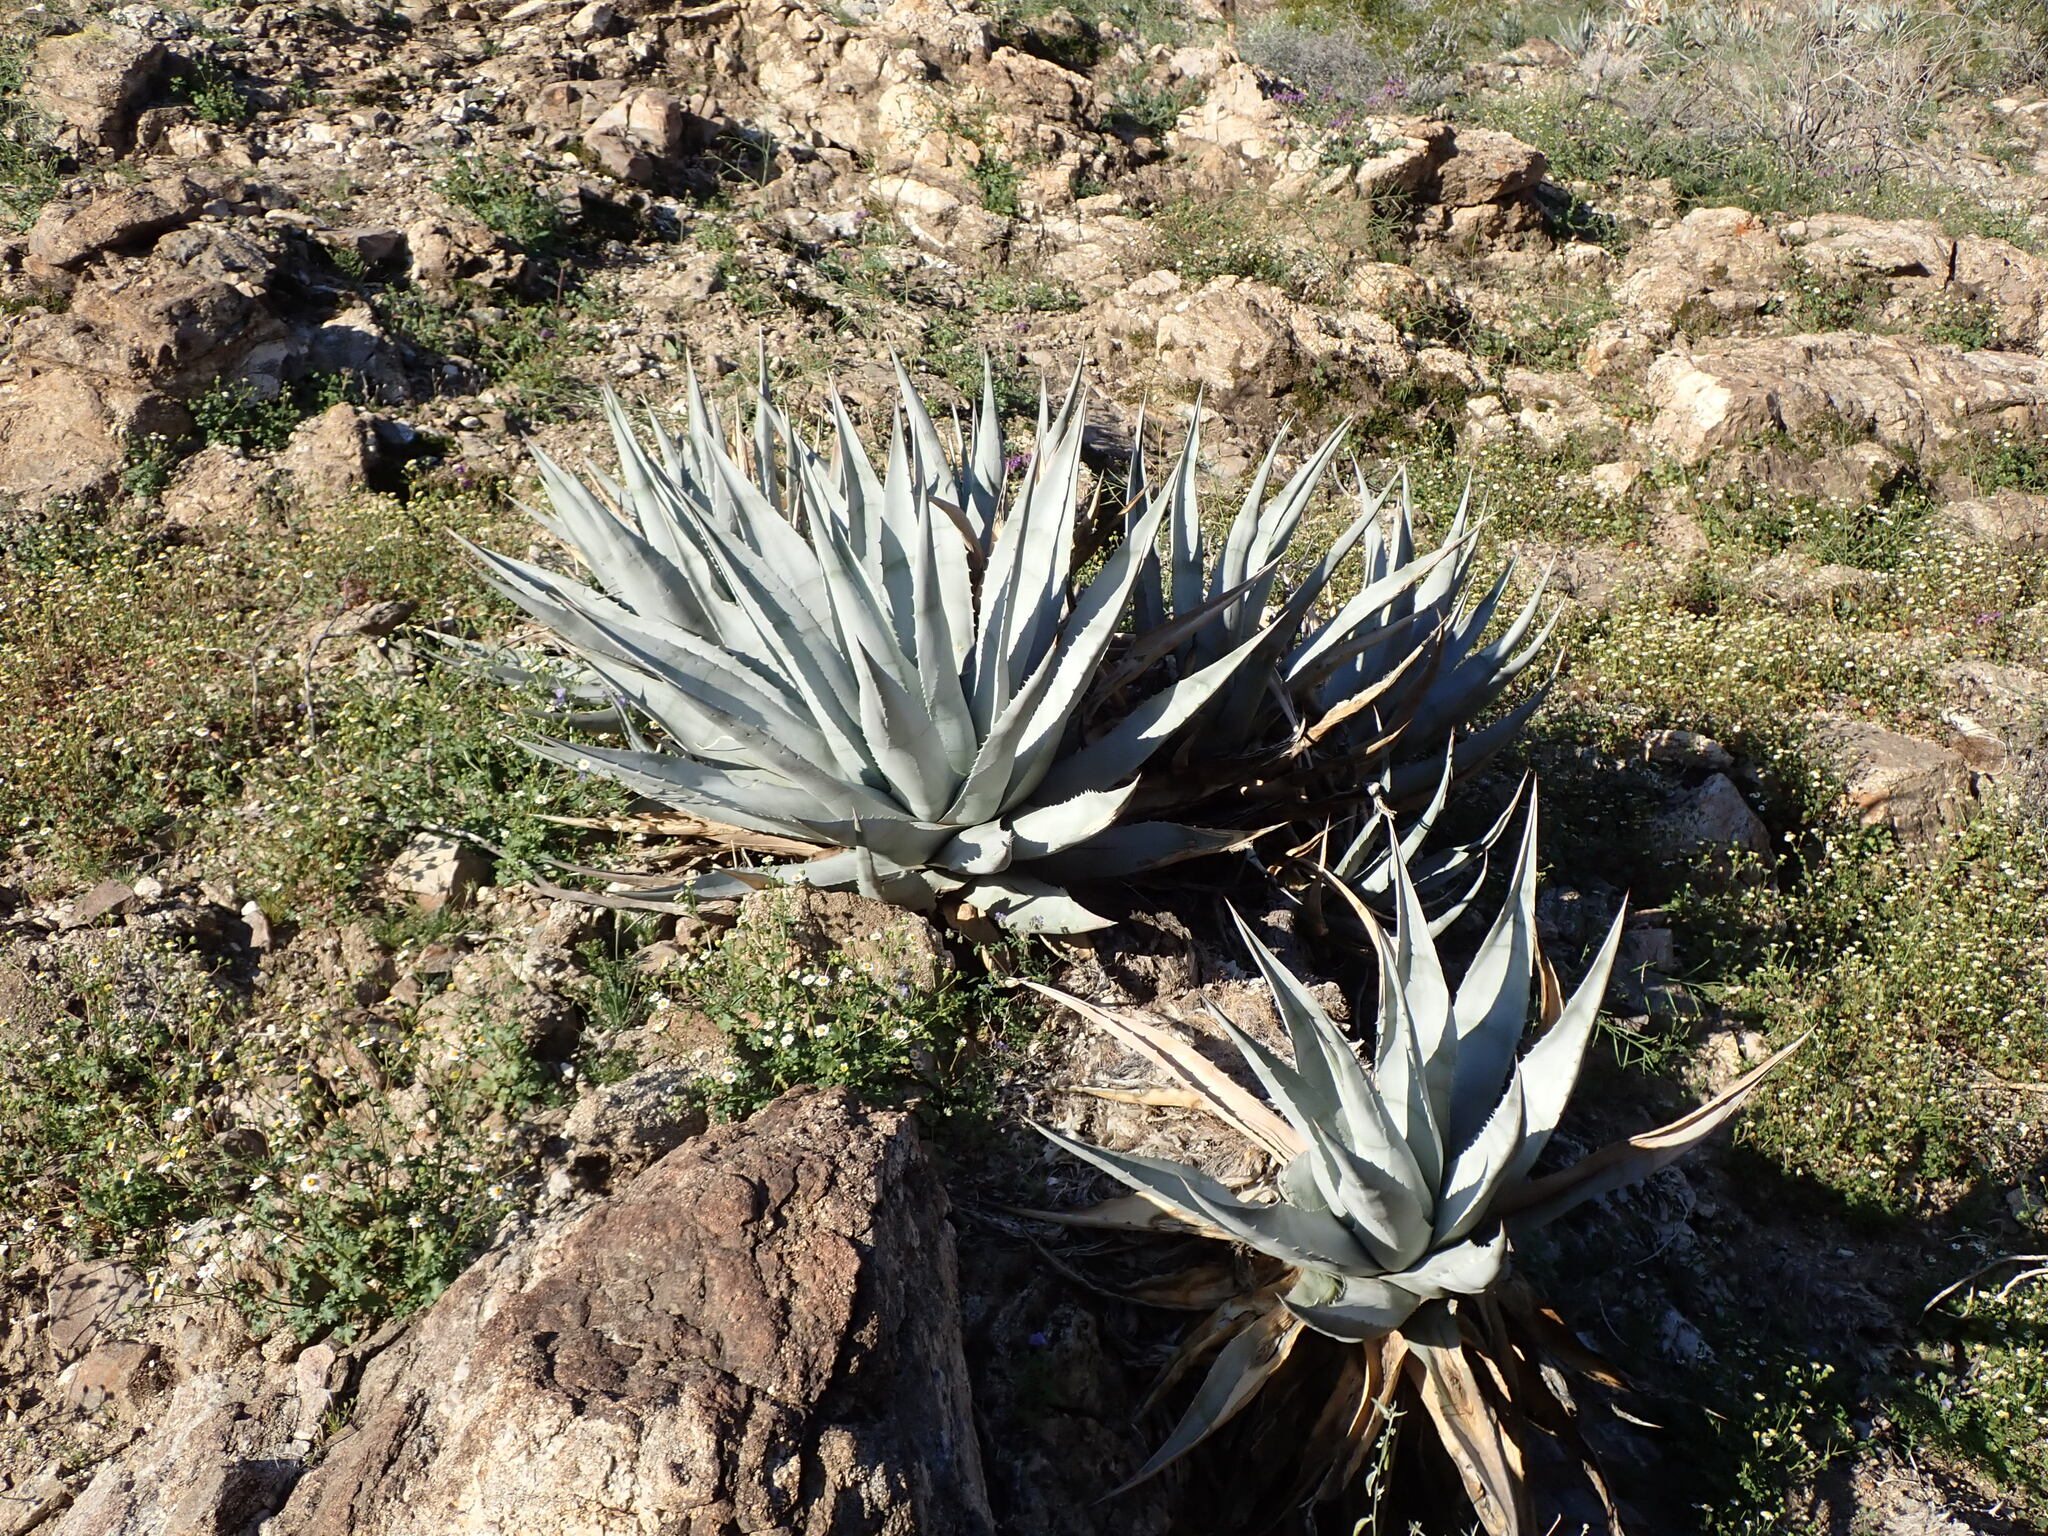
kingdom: Plantae
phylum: Tracheophyta
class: Liliopsida
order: Asparagales
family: Asparagaceae
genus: Agave
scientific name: Agave deserti
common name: Desert agave
